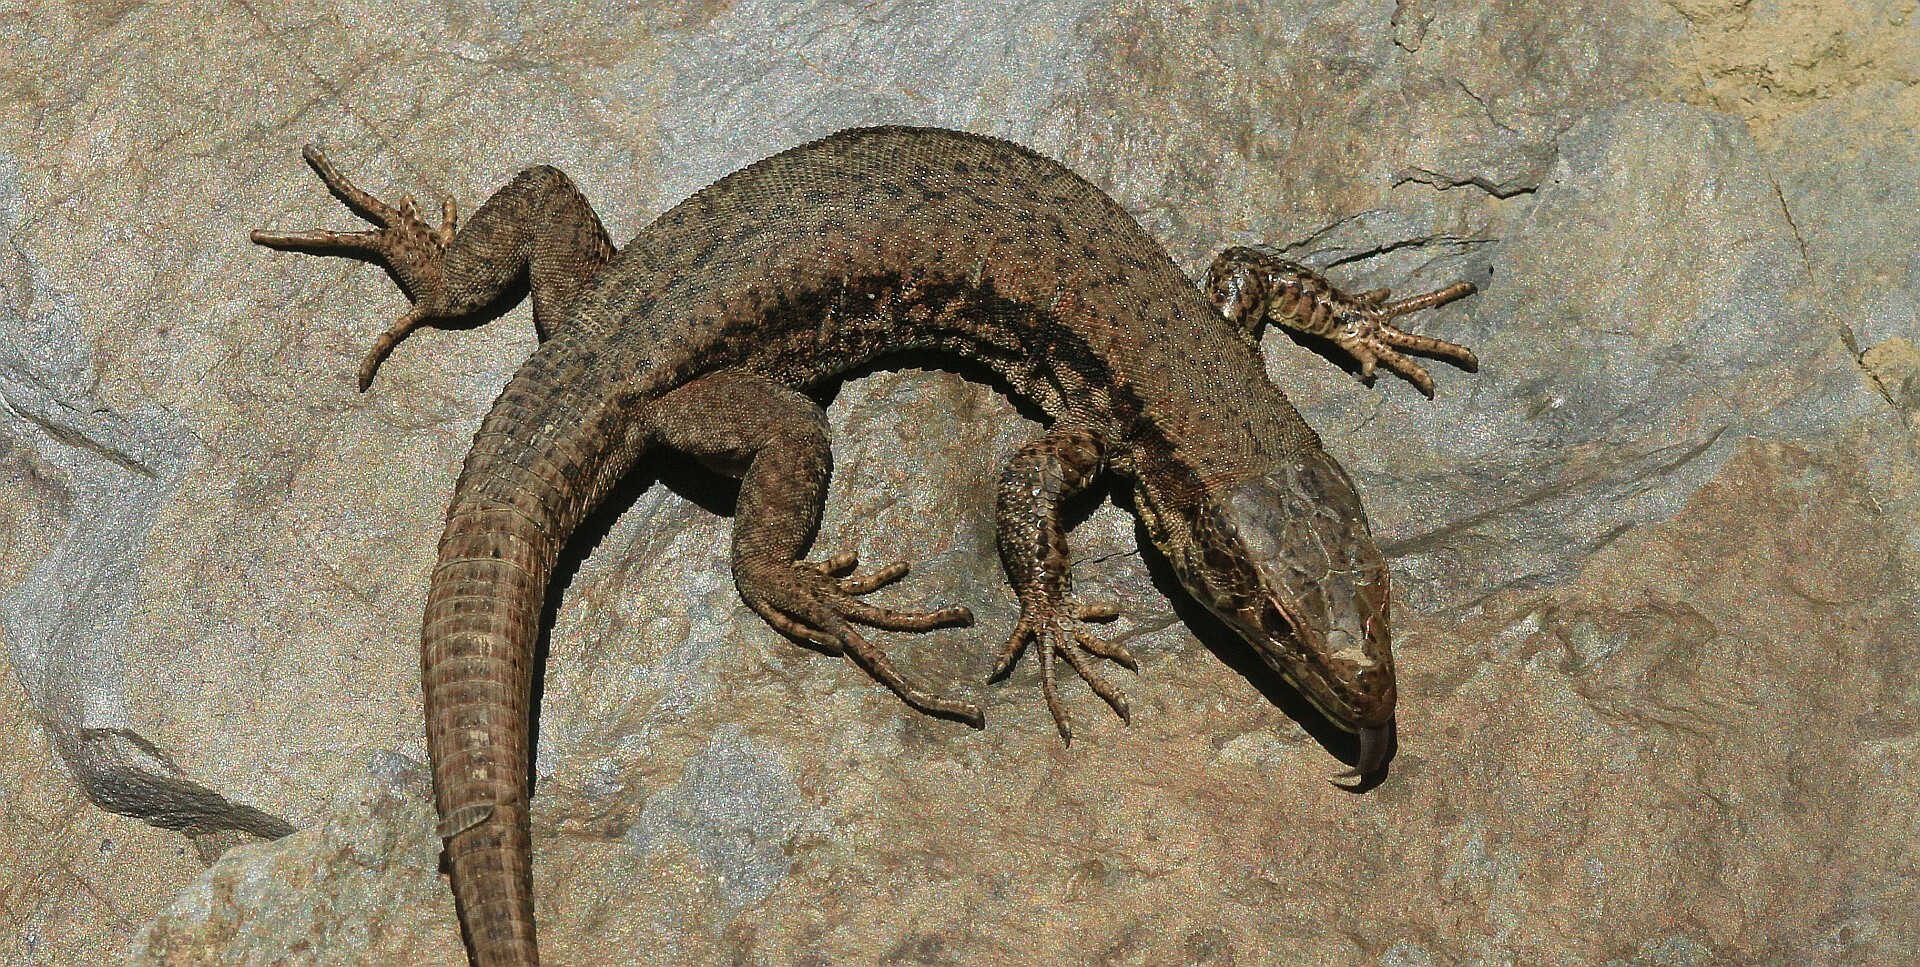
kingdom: Animalia
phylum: Chordata
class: Squamata
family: Lacertidae
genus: Podarcis
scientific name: Podarcis muralis
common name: Common wall lizard
